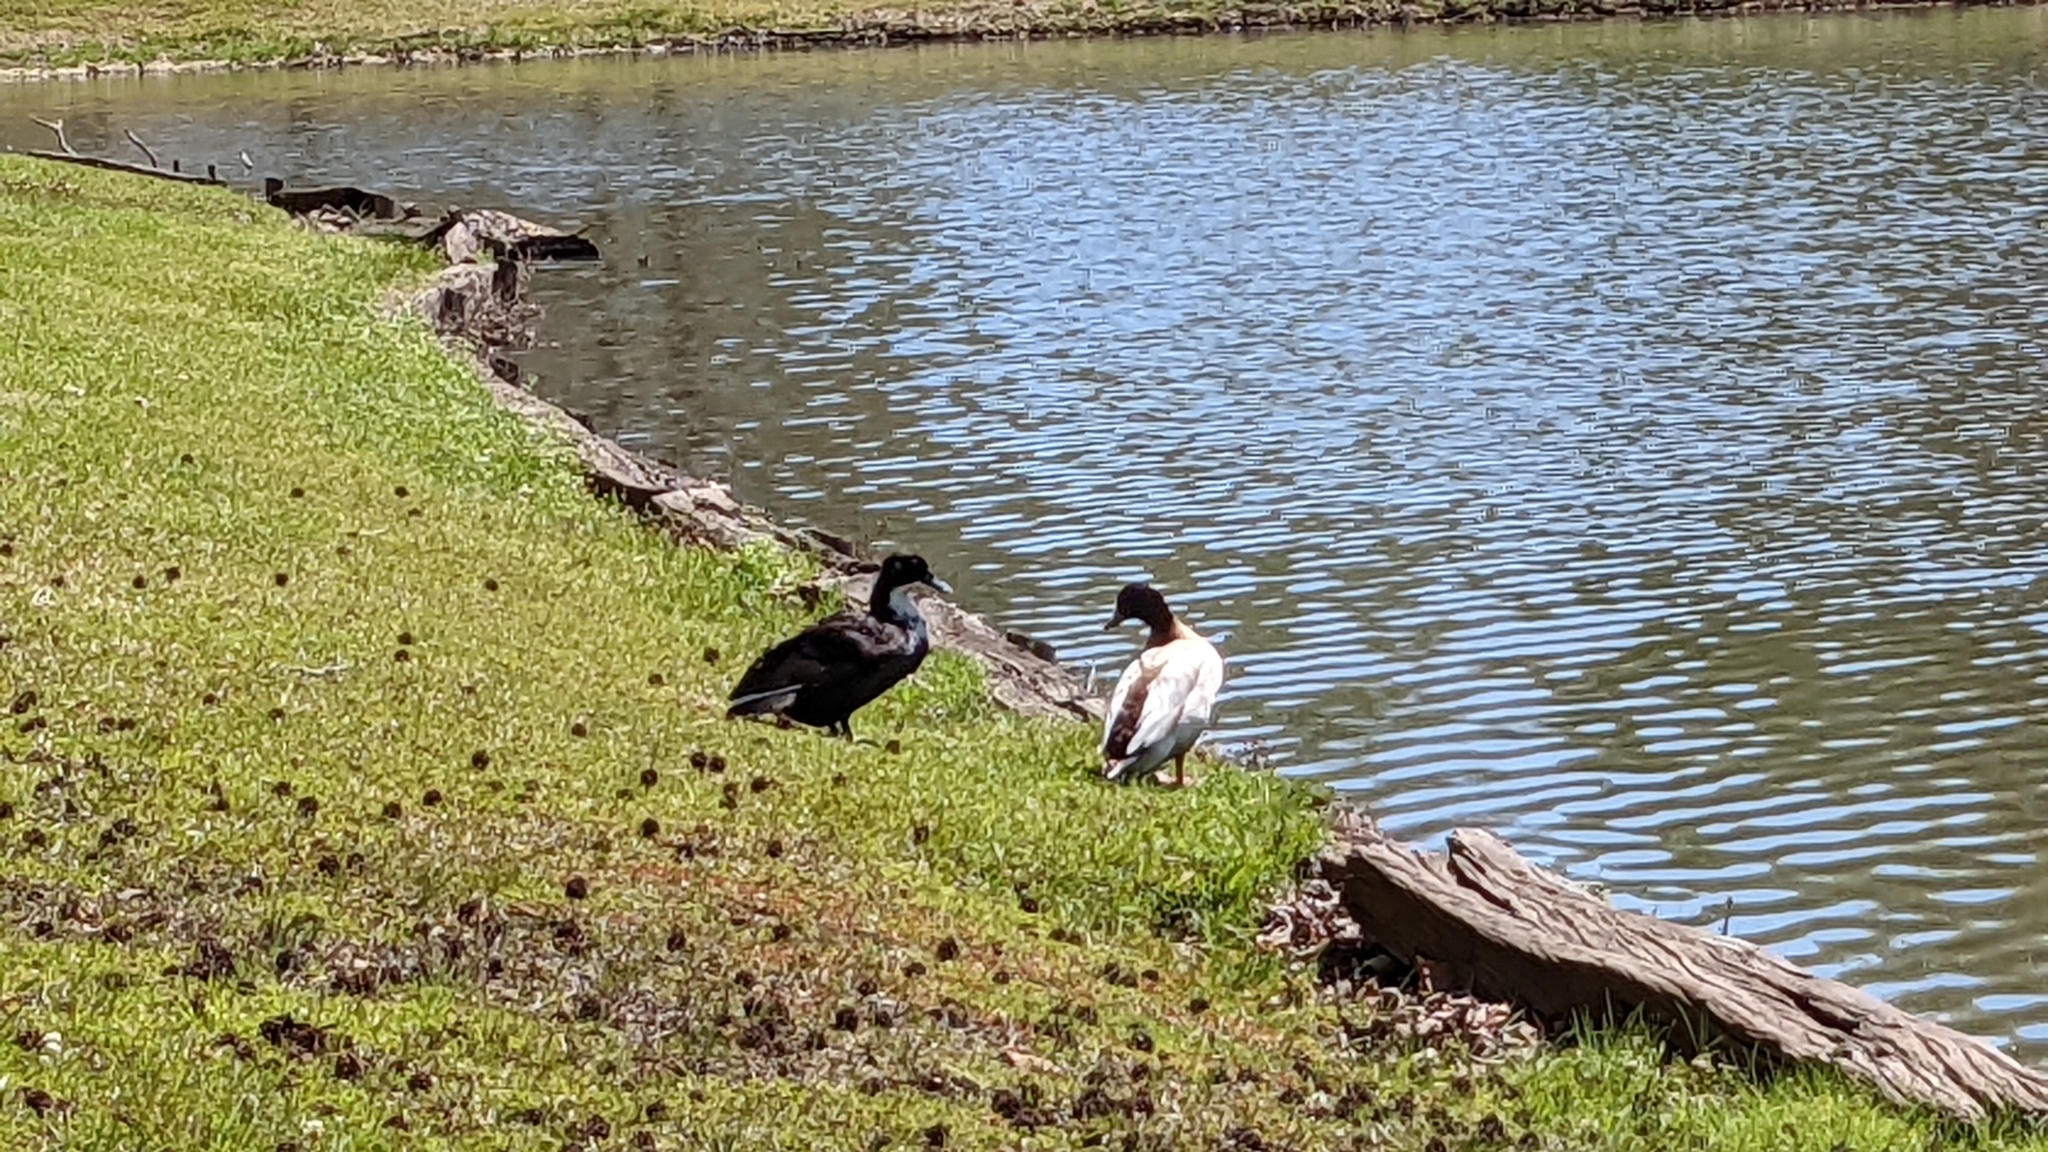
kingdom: Animalia
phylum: Chordata
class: Aves
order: Anseriformes
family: Anatidae
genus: Anas
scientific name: Anas platyrhynchos
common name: Mallard
